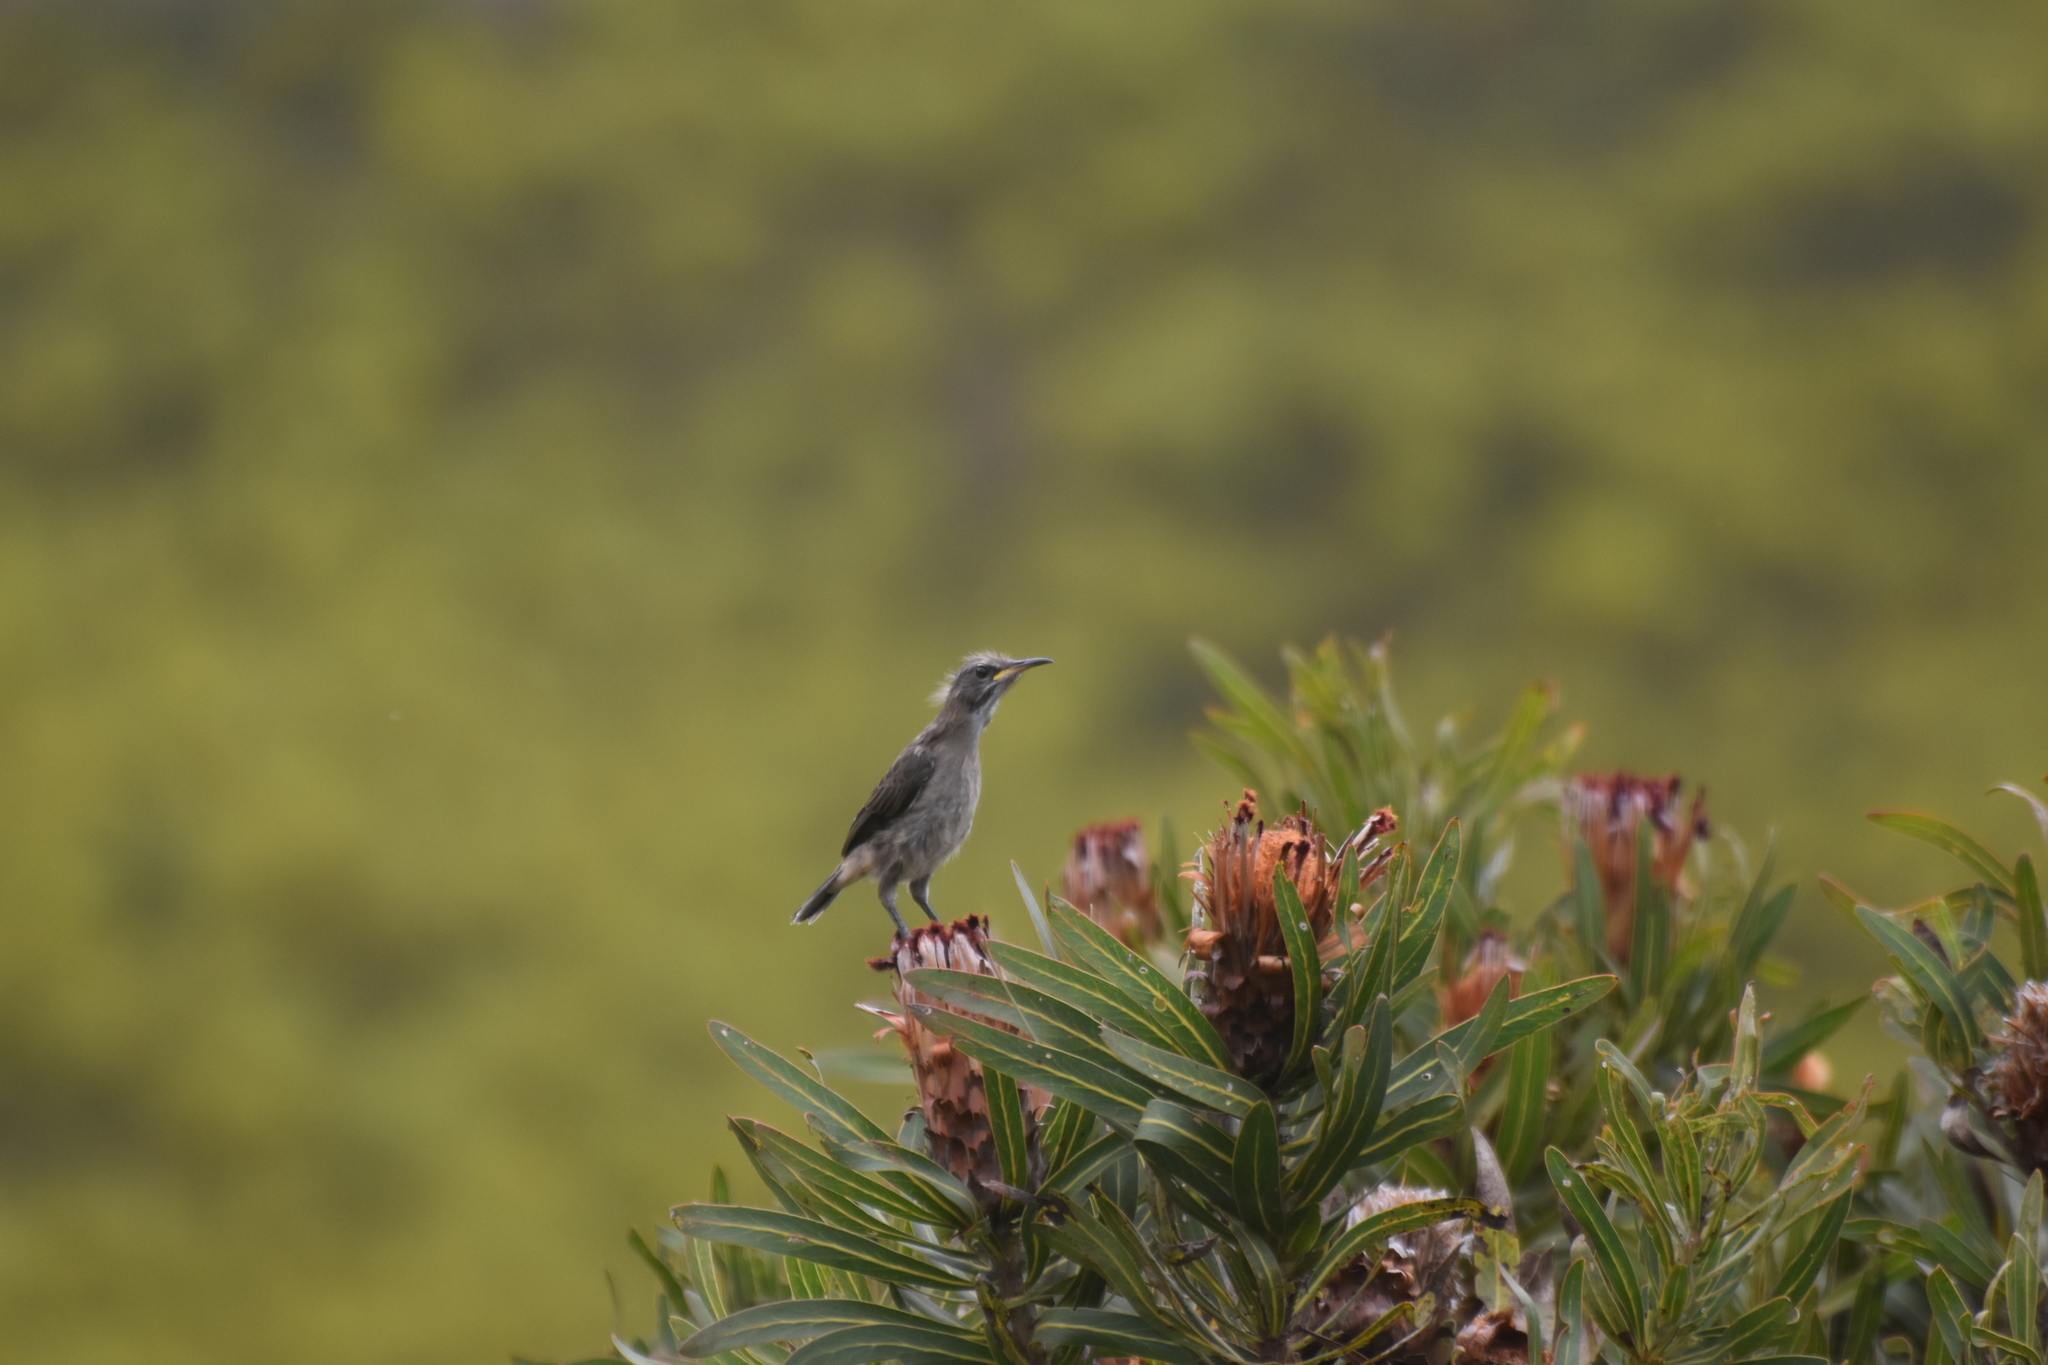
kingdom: Animalia
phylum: Chordata
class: Aves
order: Passeriformes
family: Promeropidae
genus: Promerops
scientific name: Promerops cafer
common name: Cape sugarbird
